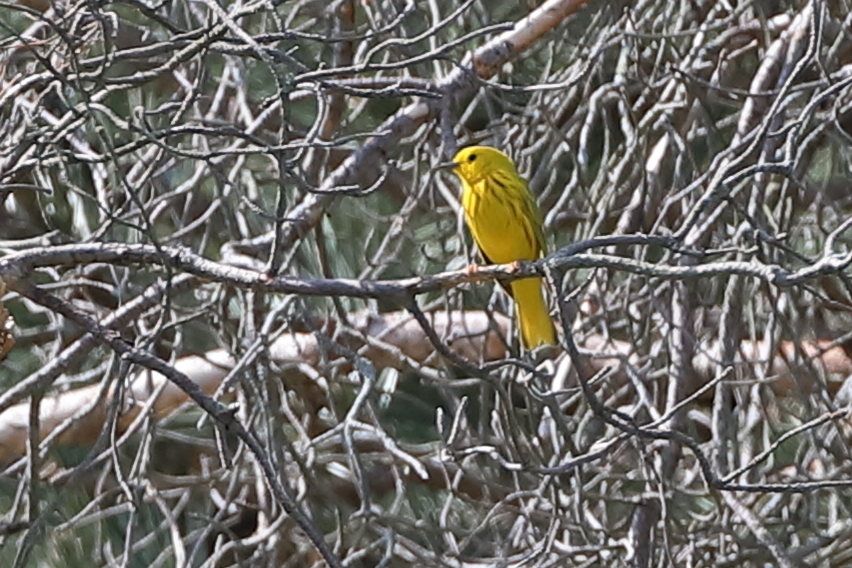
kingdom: Animalia
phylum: Chordata
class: Aves
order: Passeriformes
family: Parulidae
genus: Setophaga
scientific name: Setophaga petechia
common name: Yellow warbler
